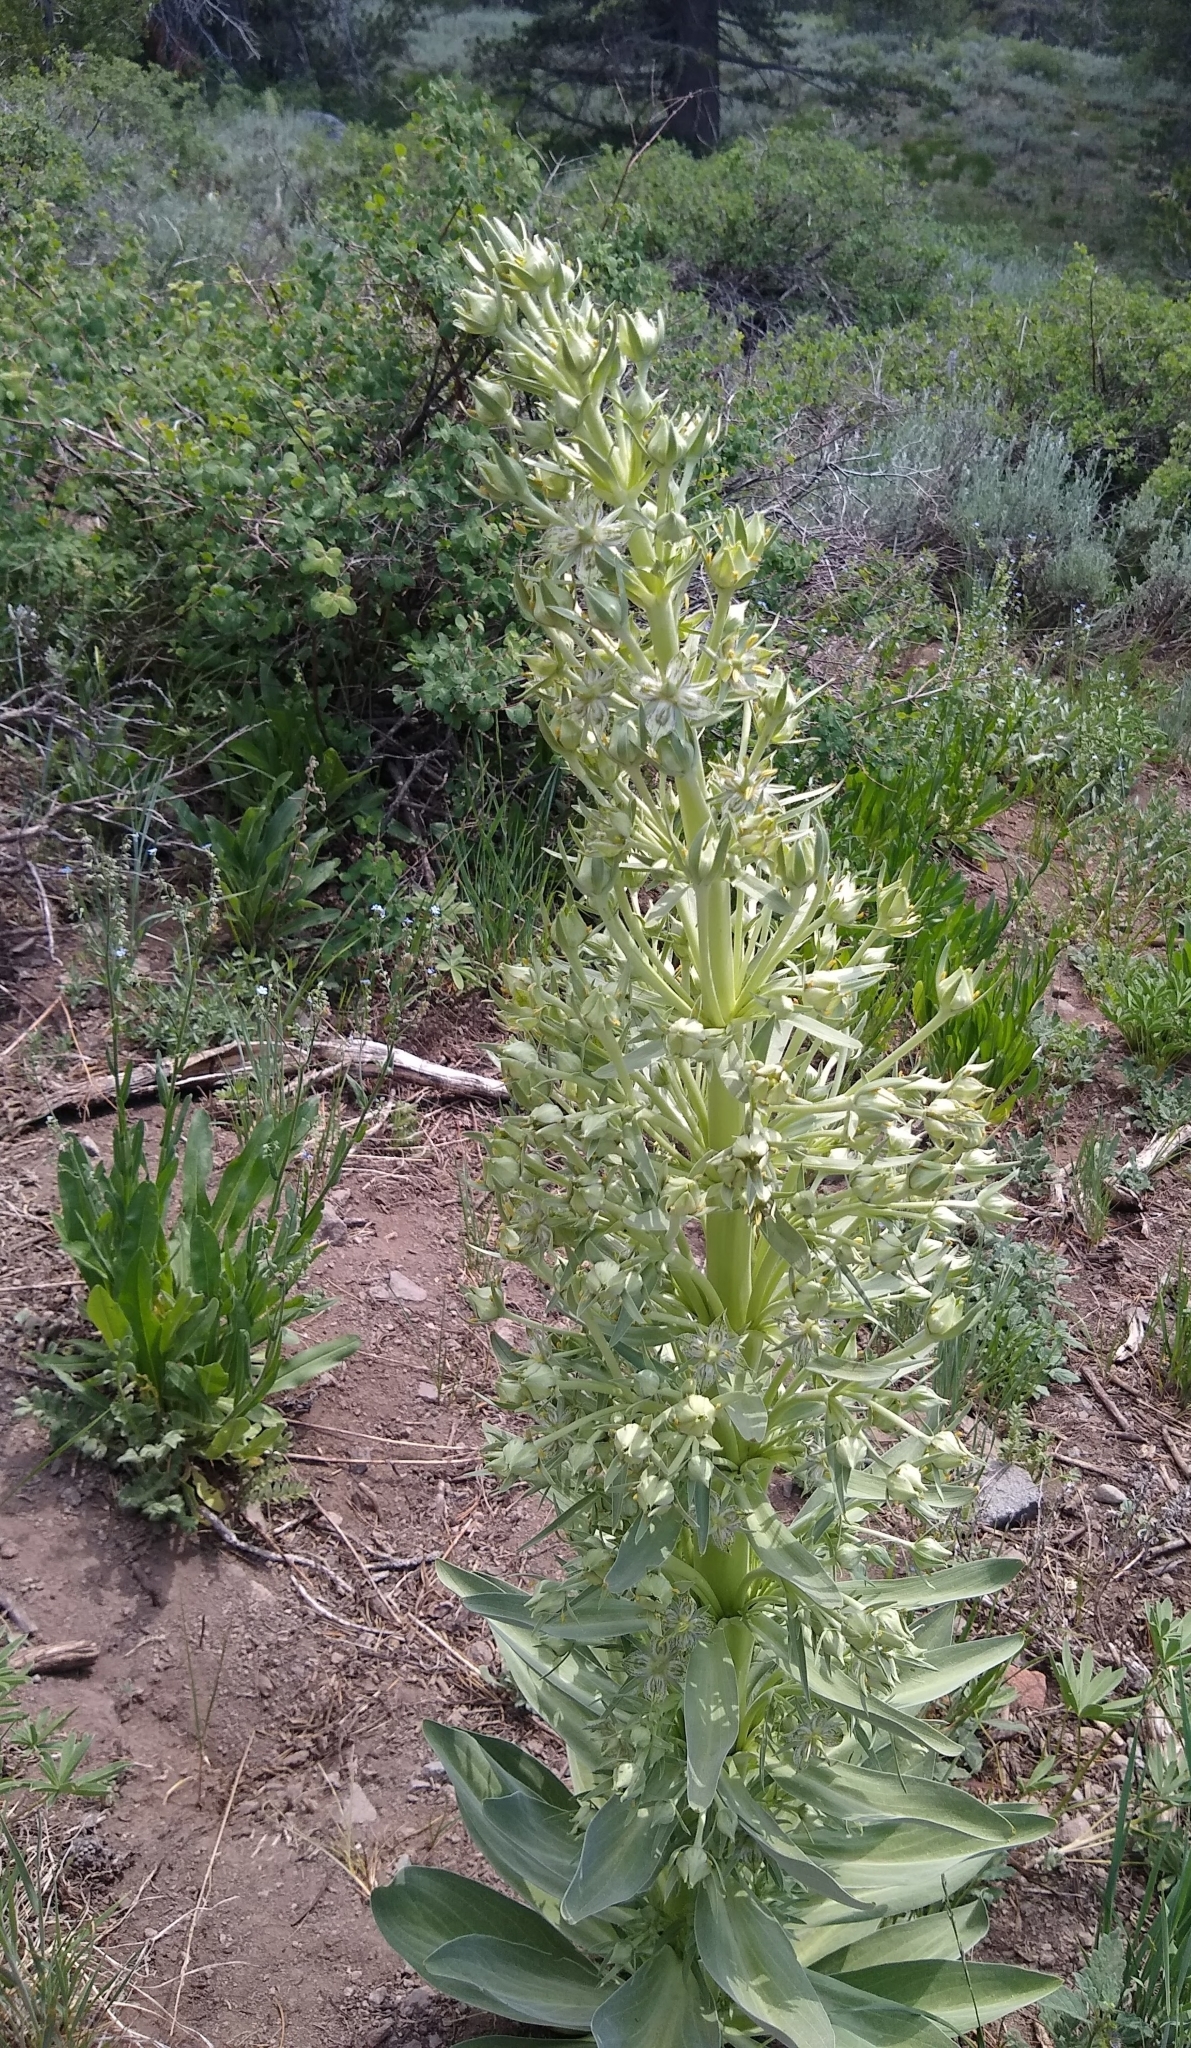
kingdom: Plantae
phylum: Tracheophyta
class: Magnoliopsida
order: Gentianales
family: Gentianaceae
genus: Frasera
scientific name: Frasera speciosa
